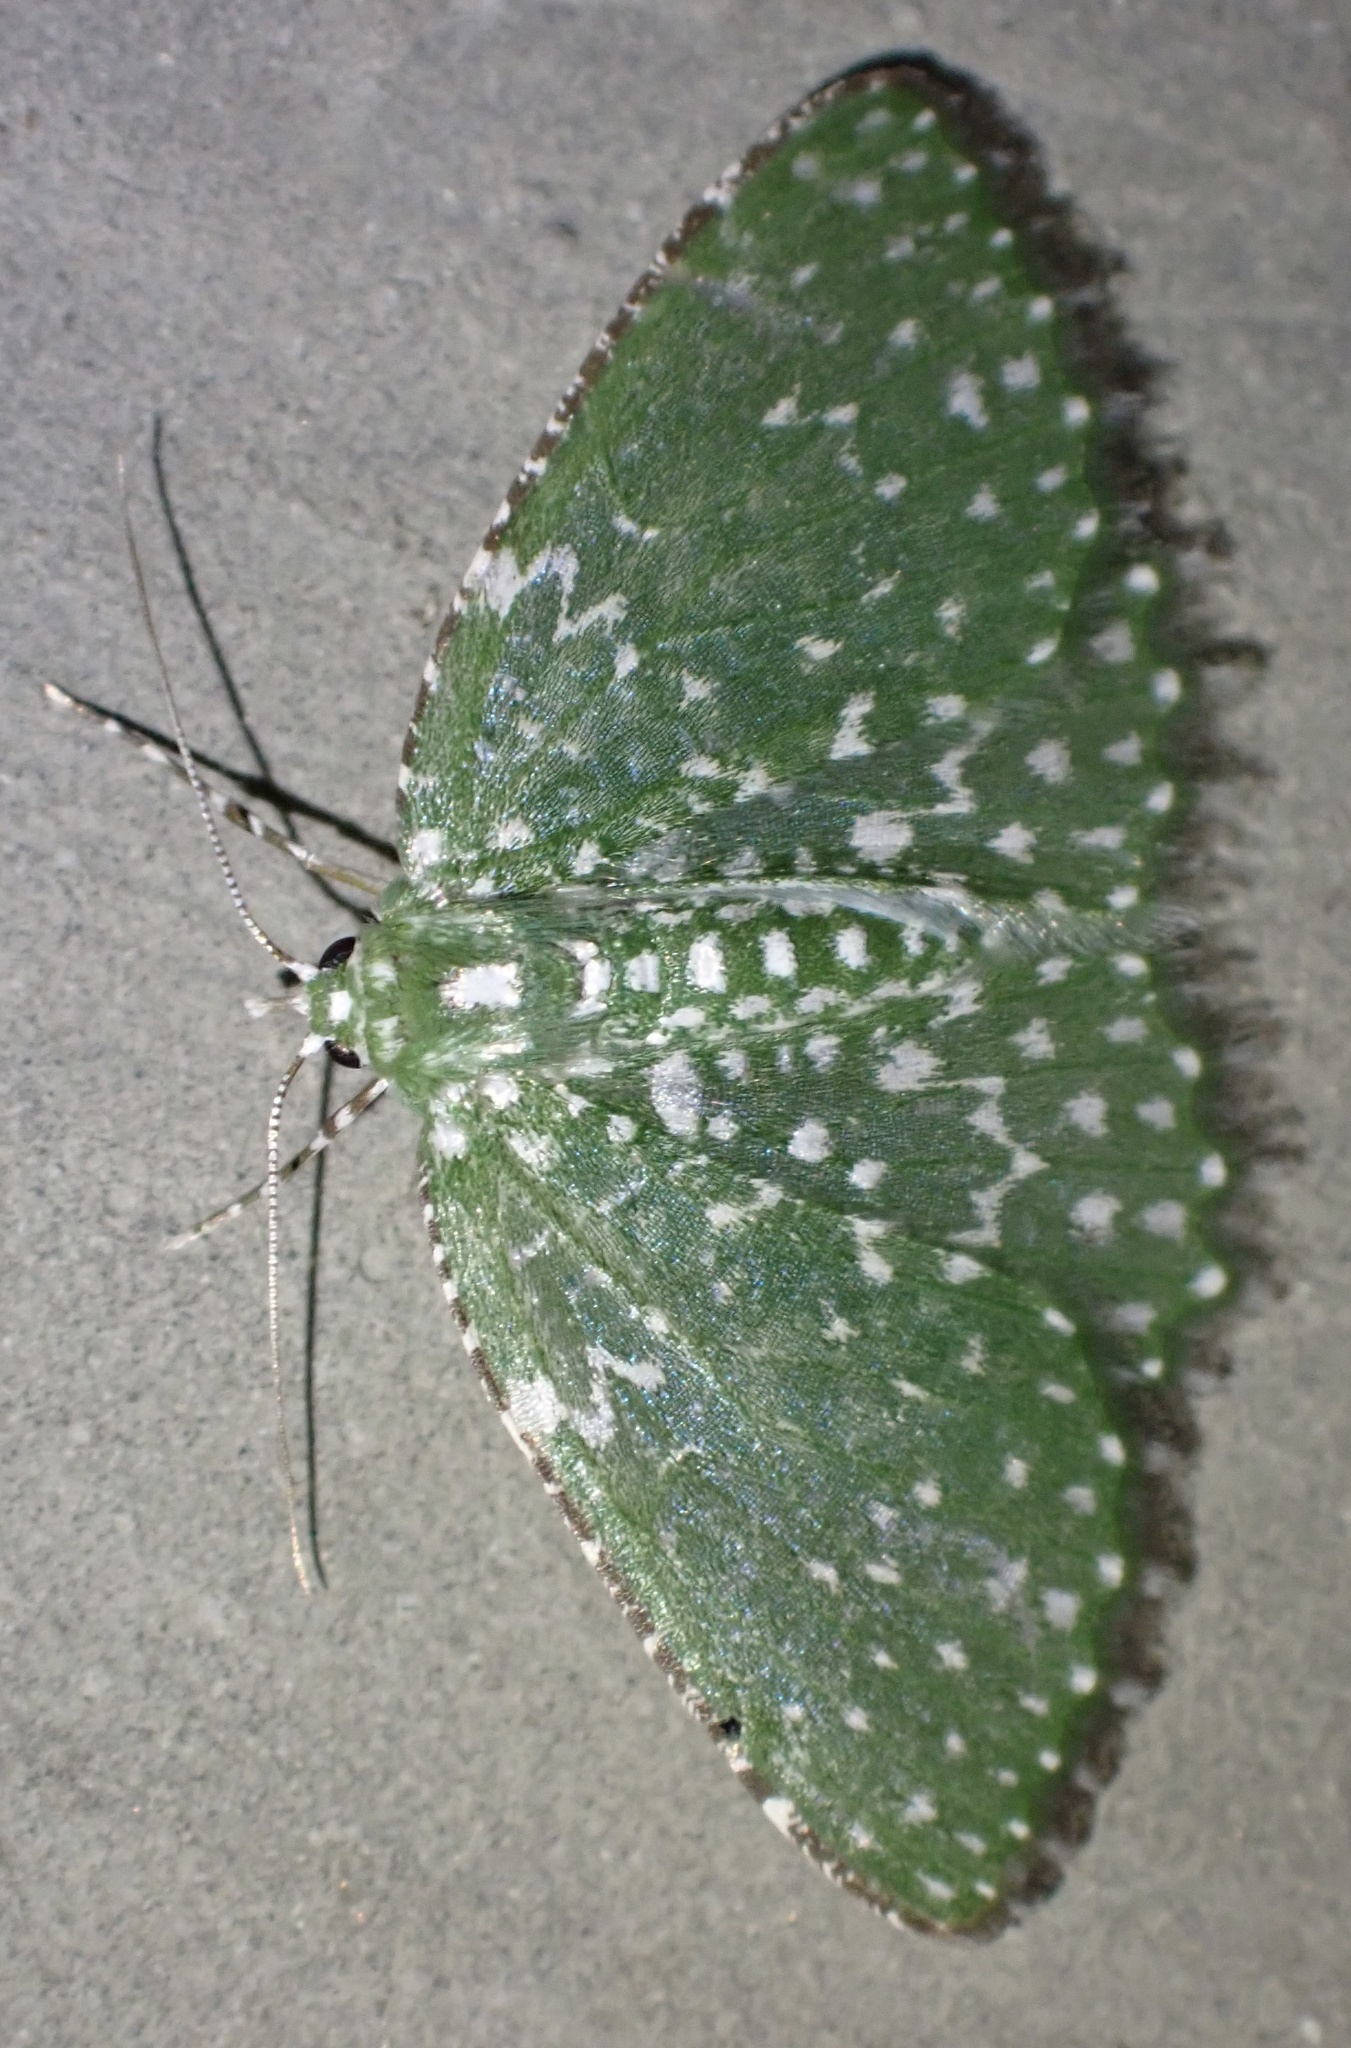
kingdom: Animalia
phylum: Arthropoda
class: Insecta
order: Lepidoptera
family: Geometridae
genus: Eucyclodes
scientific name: Eucyclodes diazeuxis
